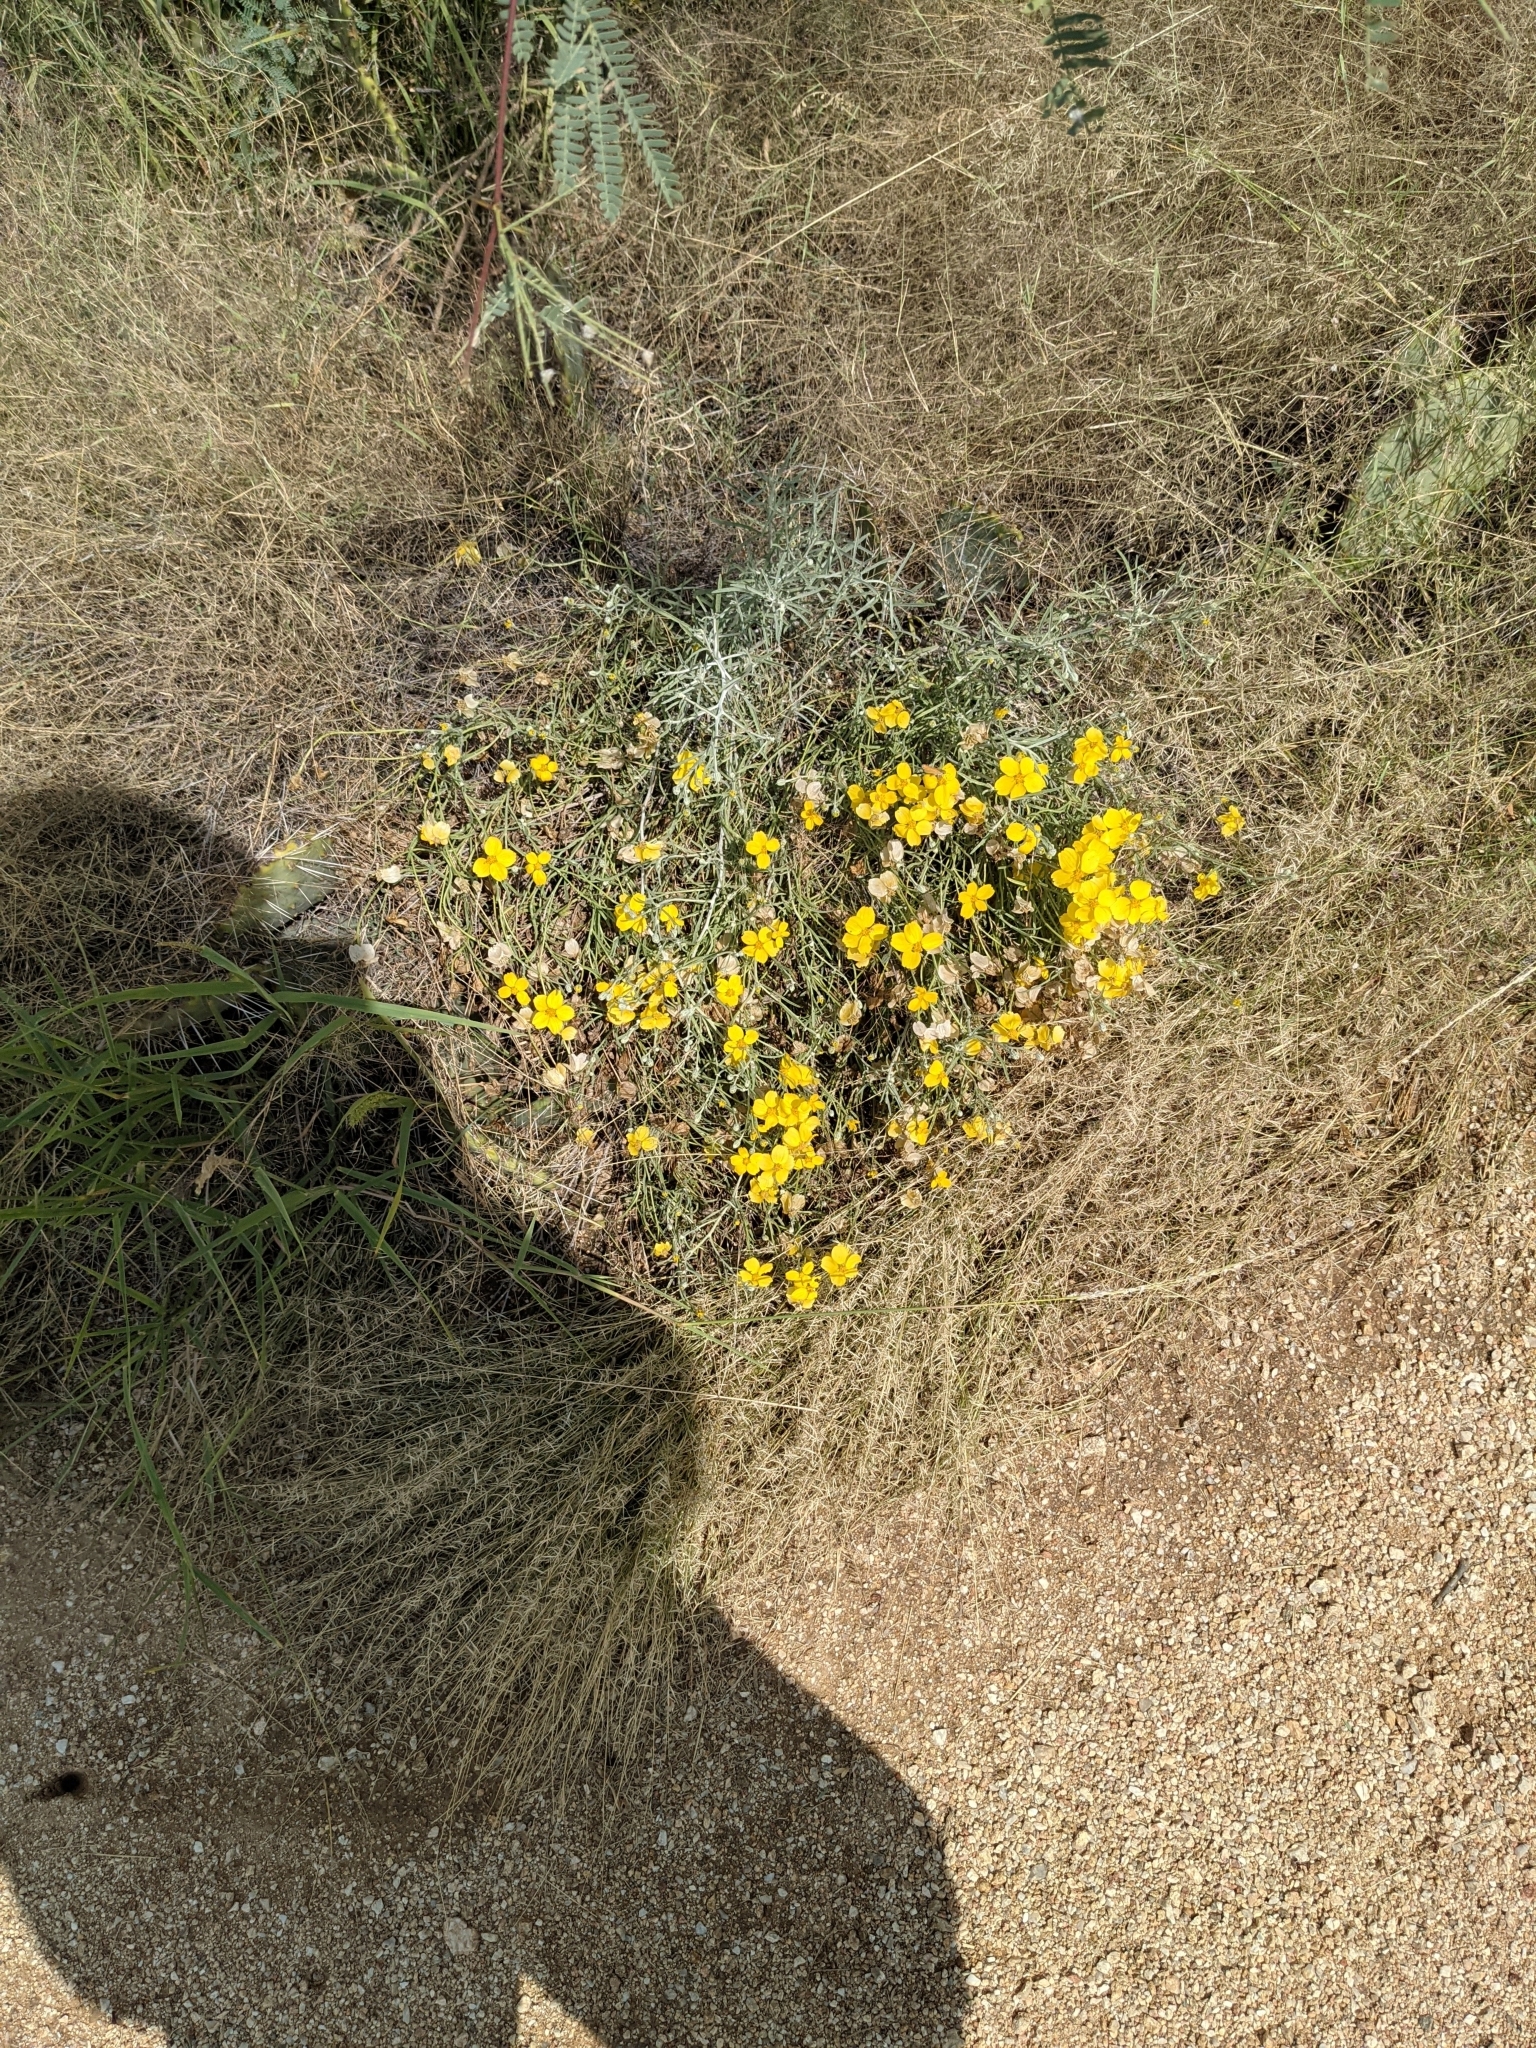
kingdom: Plantae
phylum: Tracheophyta
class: Magnoliopsida
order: Asterales
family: Asteraceae
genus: Psilostrophe
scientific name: Psilostrophe cooperi
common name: White-stem paper-flower
